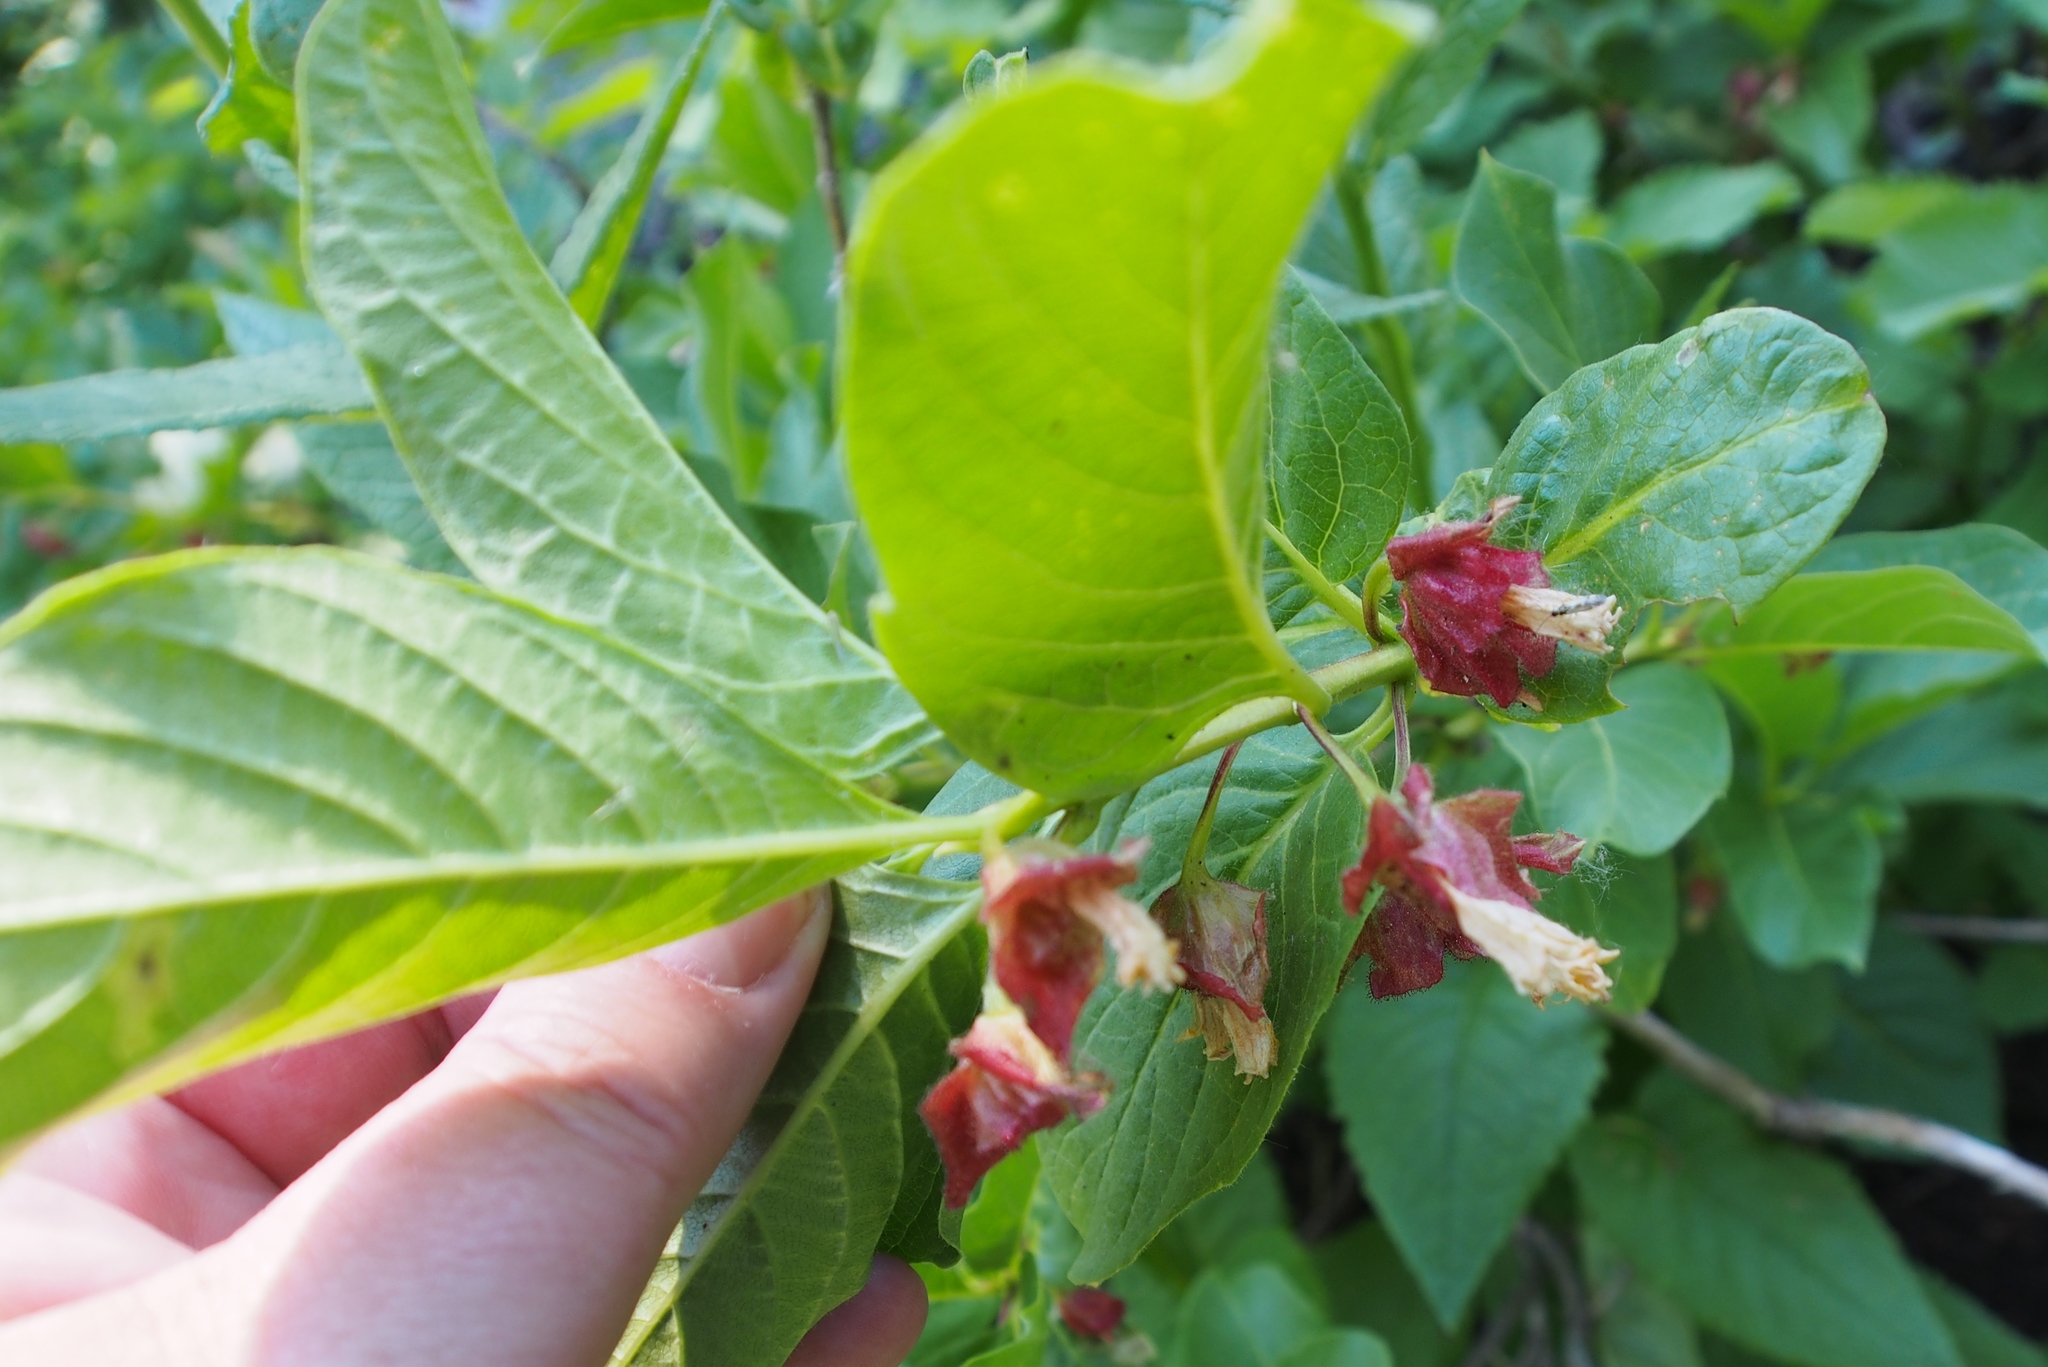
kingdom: Plantae
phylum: Tracheophyta
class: Magnoliopsida
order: Dipsacales
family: Caprifoliaceae
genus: Lonicera
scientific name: Lonicera involucrata
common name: Californian honeysuckle
